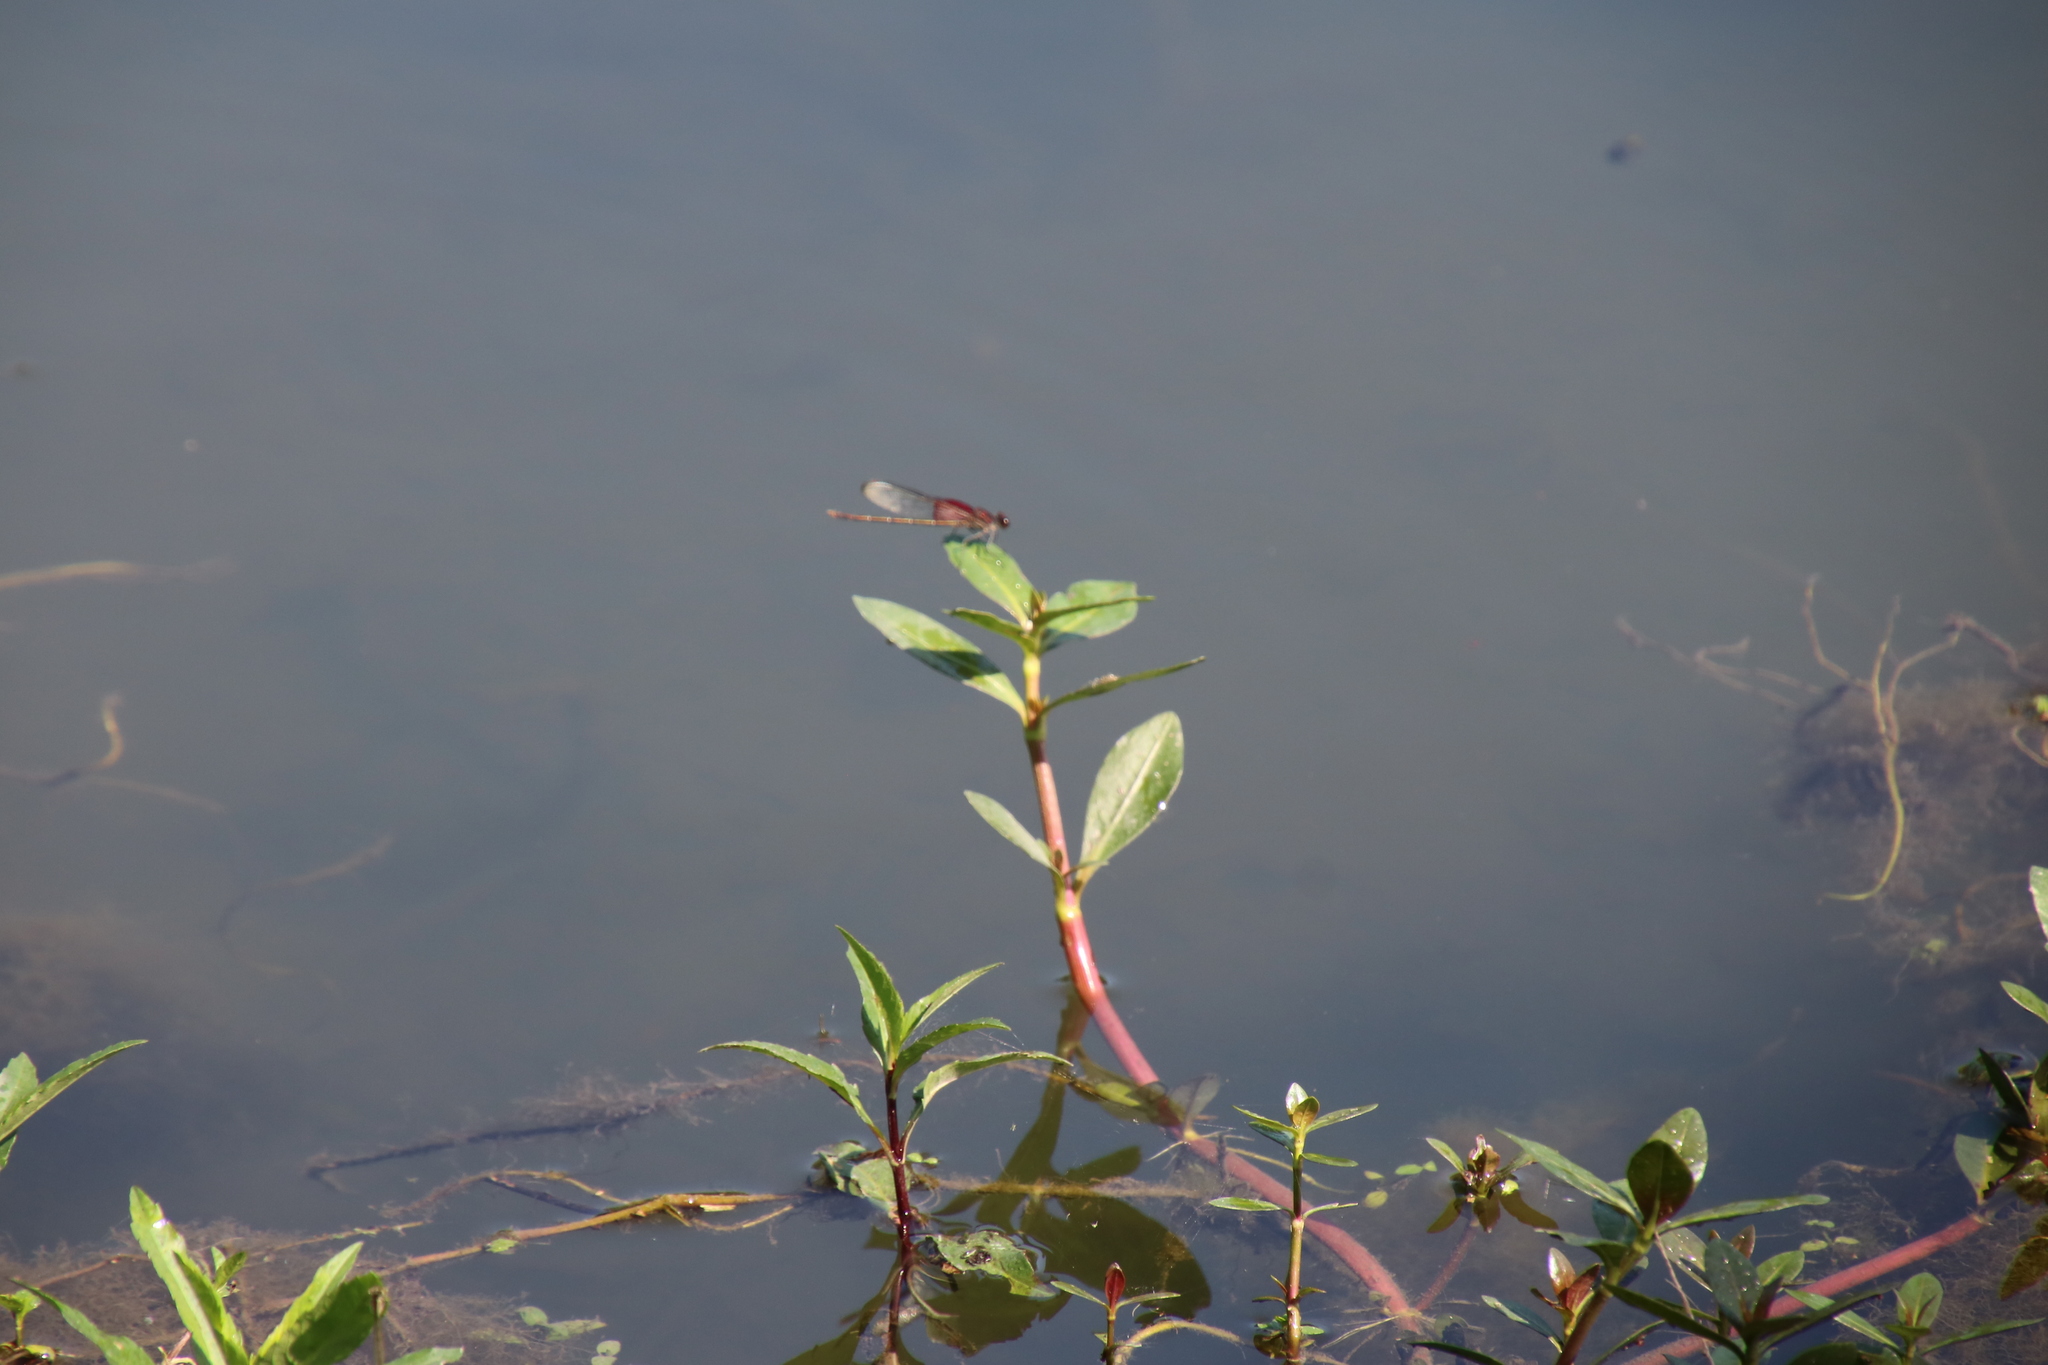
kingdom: Animalia
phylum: Arthropoda
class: Insecta
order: Odonata
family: Calopterygidae
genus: Hetaerina
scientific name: Hetaerina americana
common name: American rubyspot
